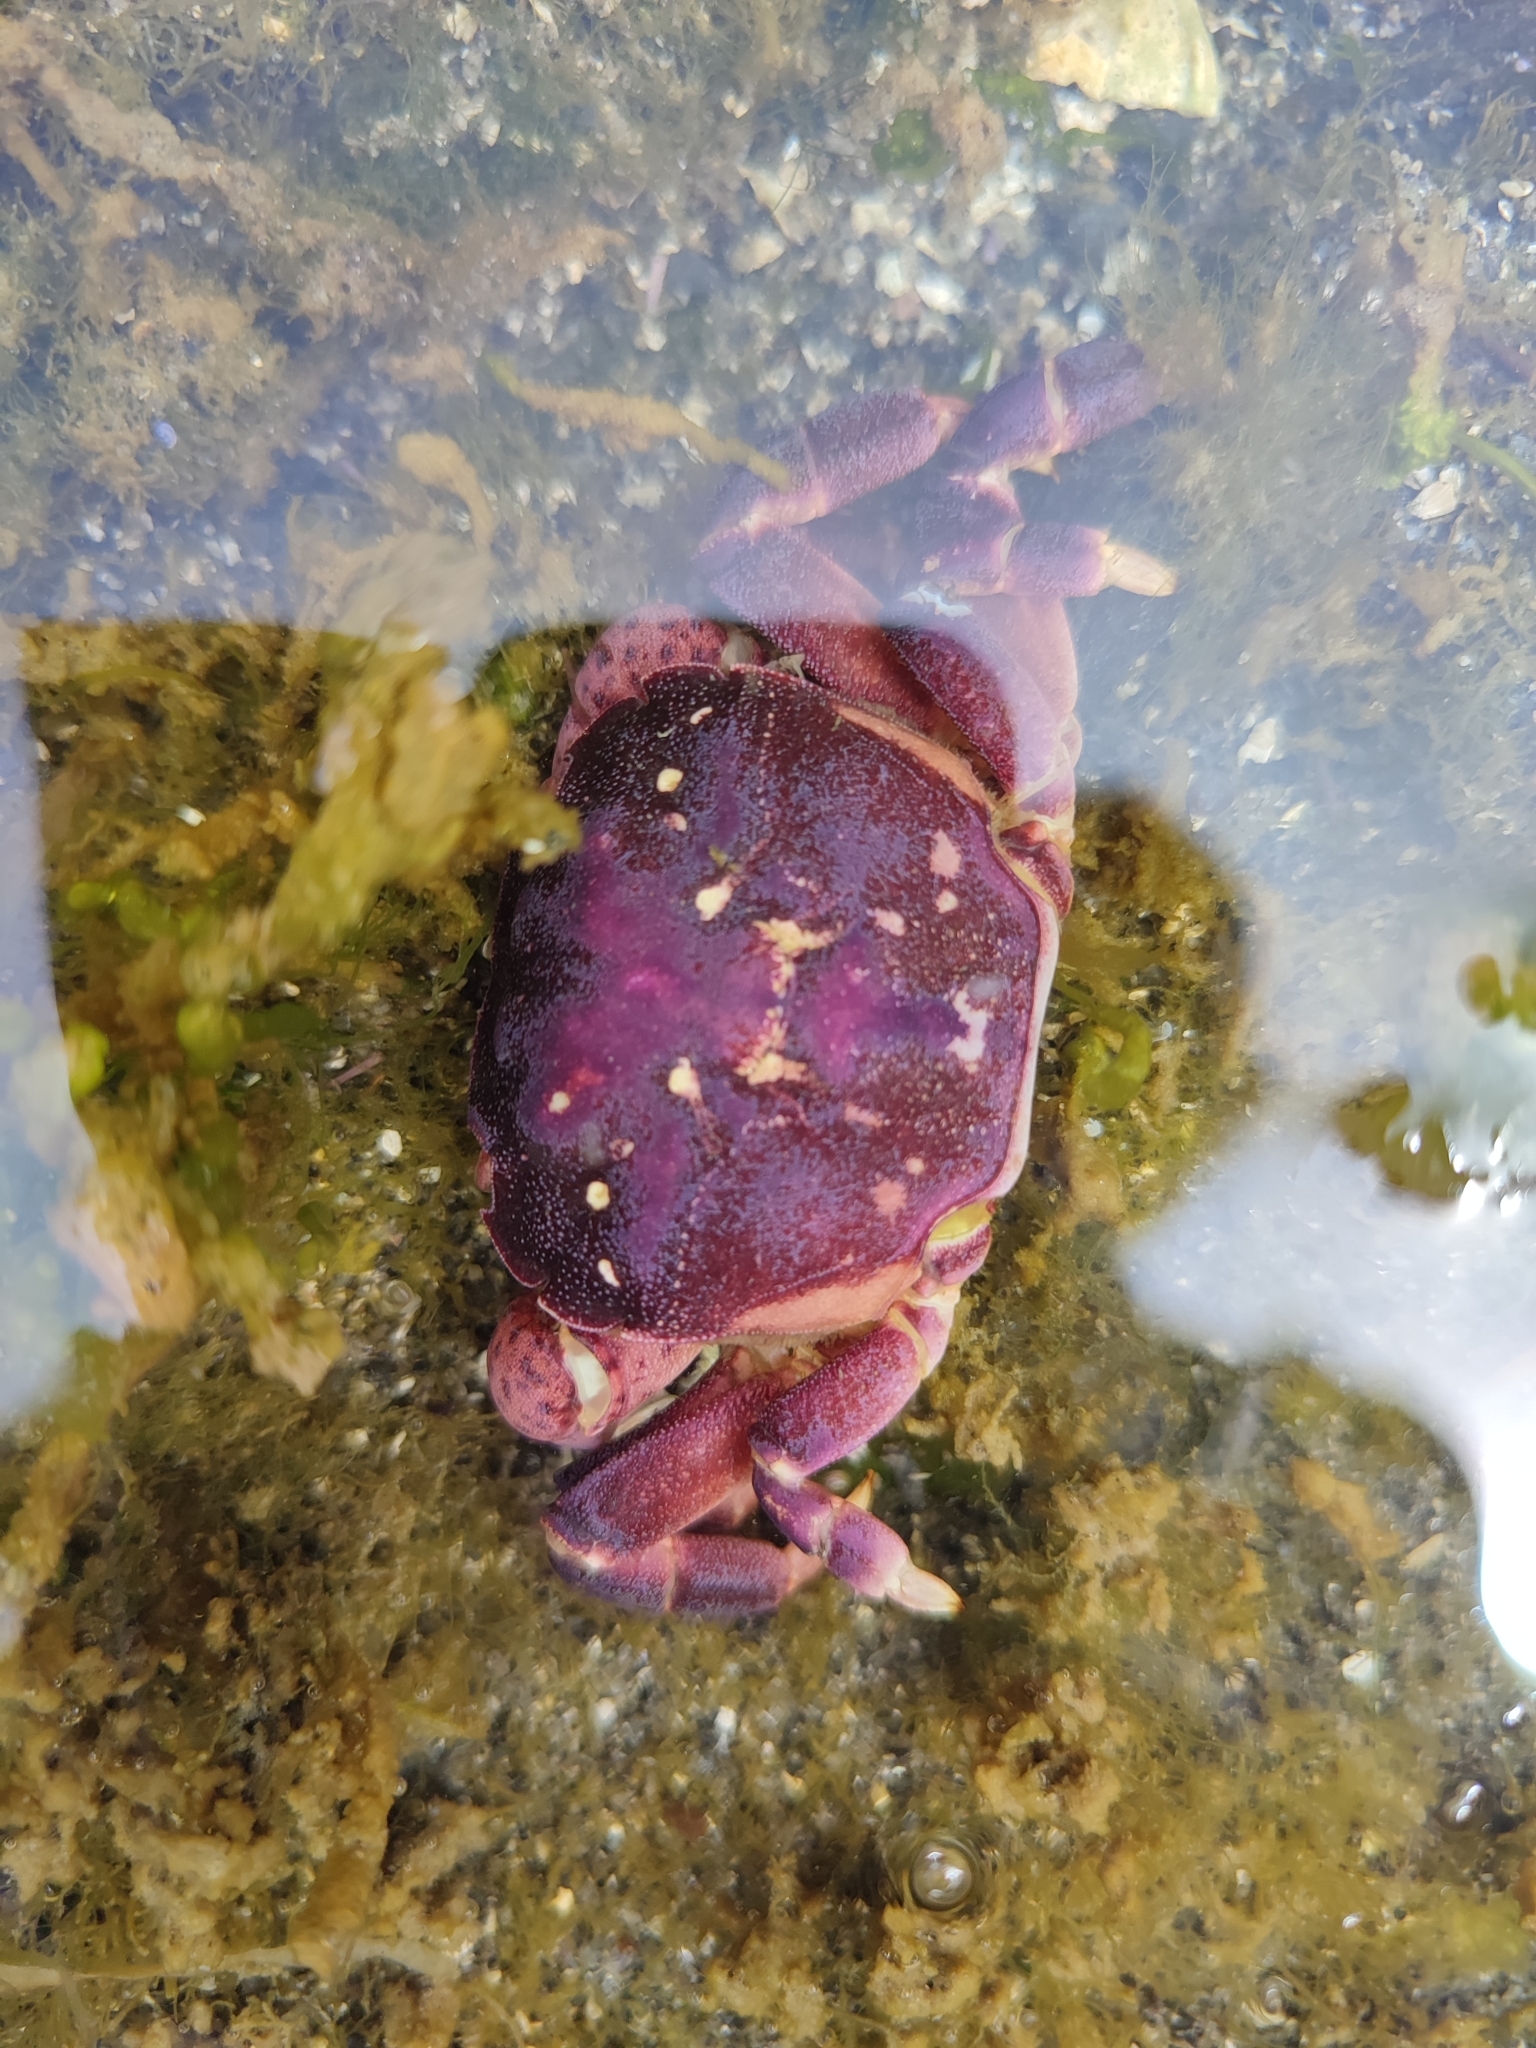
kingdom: Animalia
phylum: Arthropoda
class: Malacostraca
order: Decapoda
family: Varunidae
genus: Hemigrapsus
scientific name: Hemigrapsus nudus
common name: Purple shore crab
